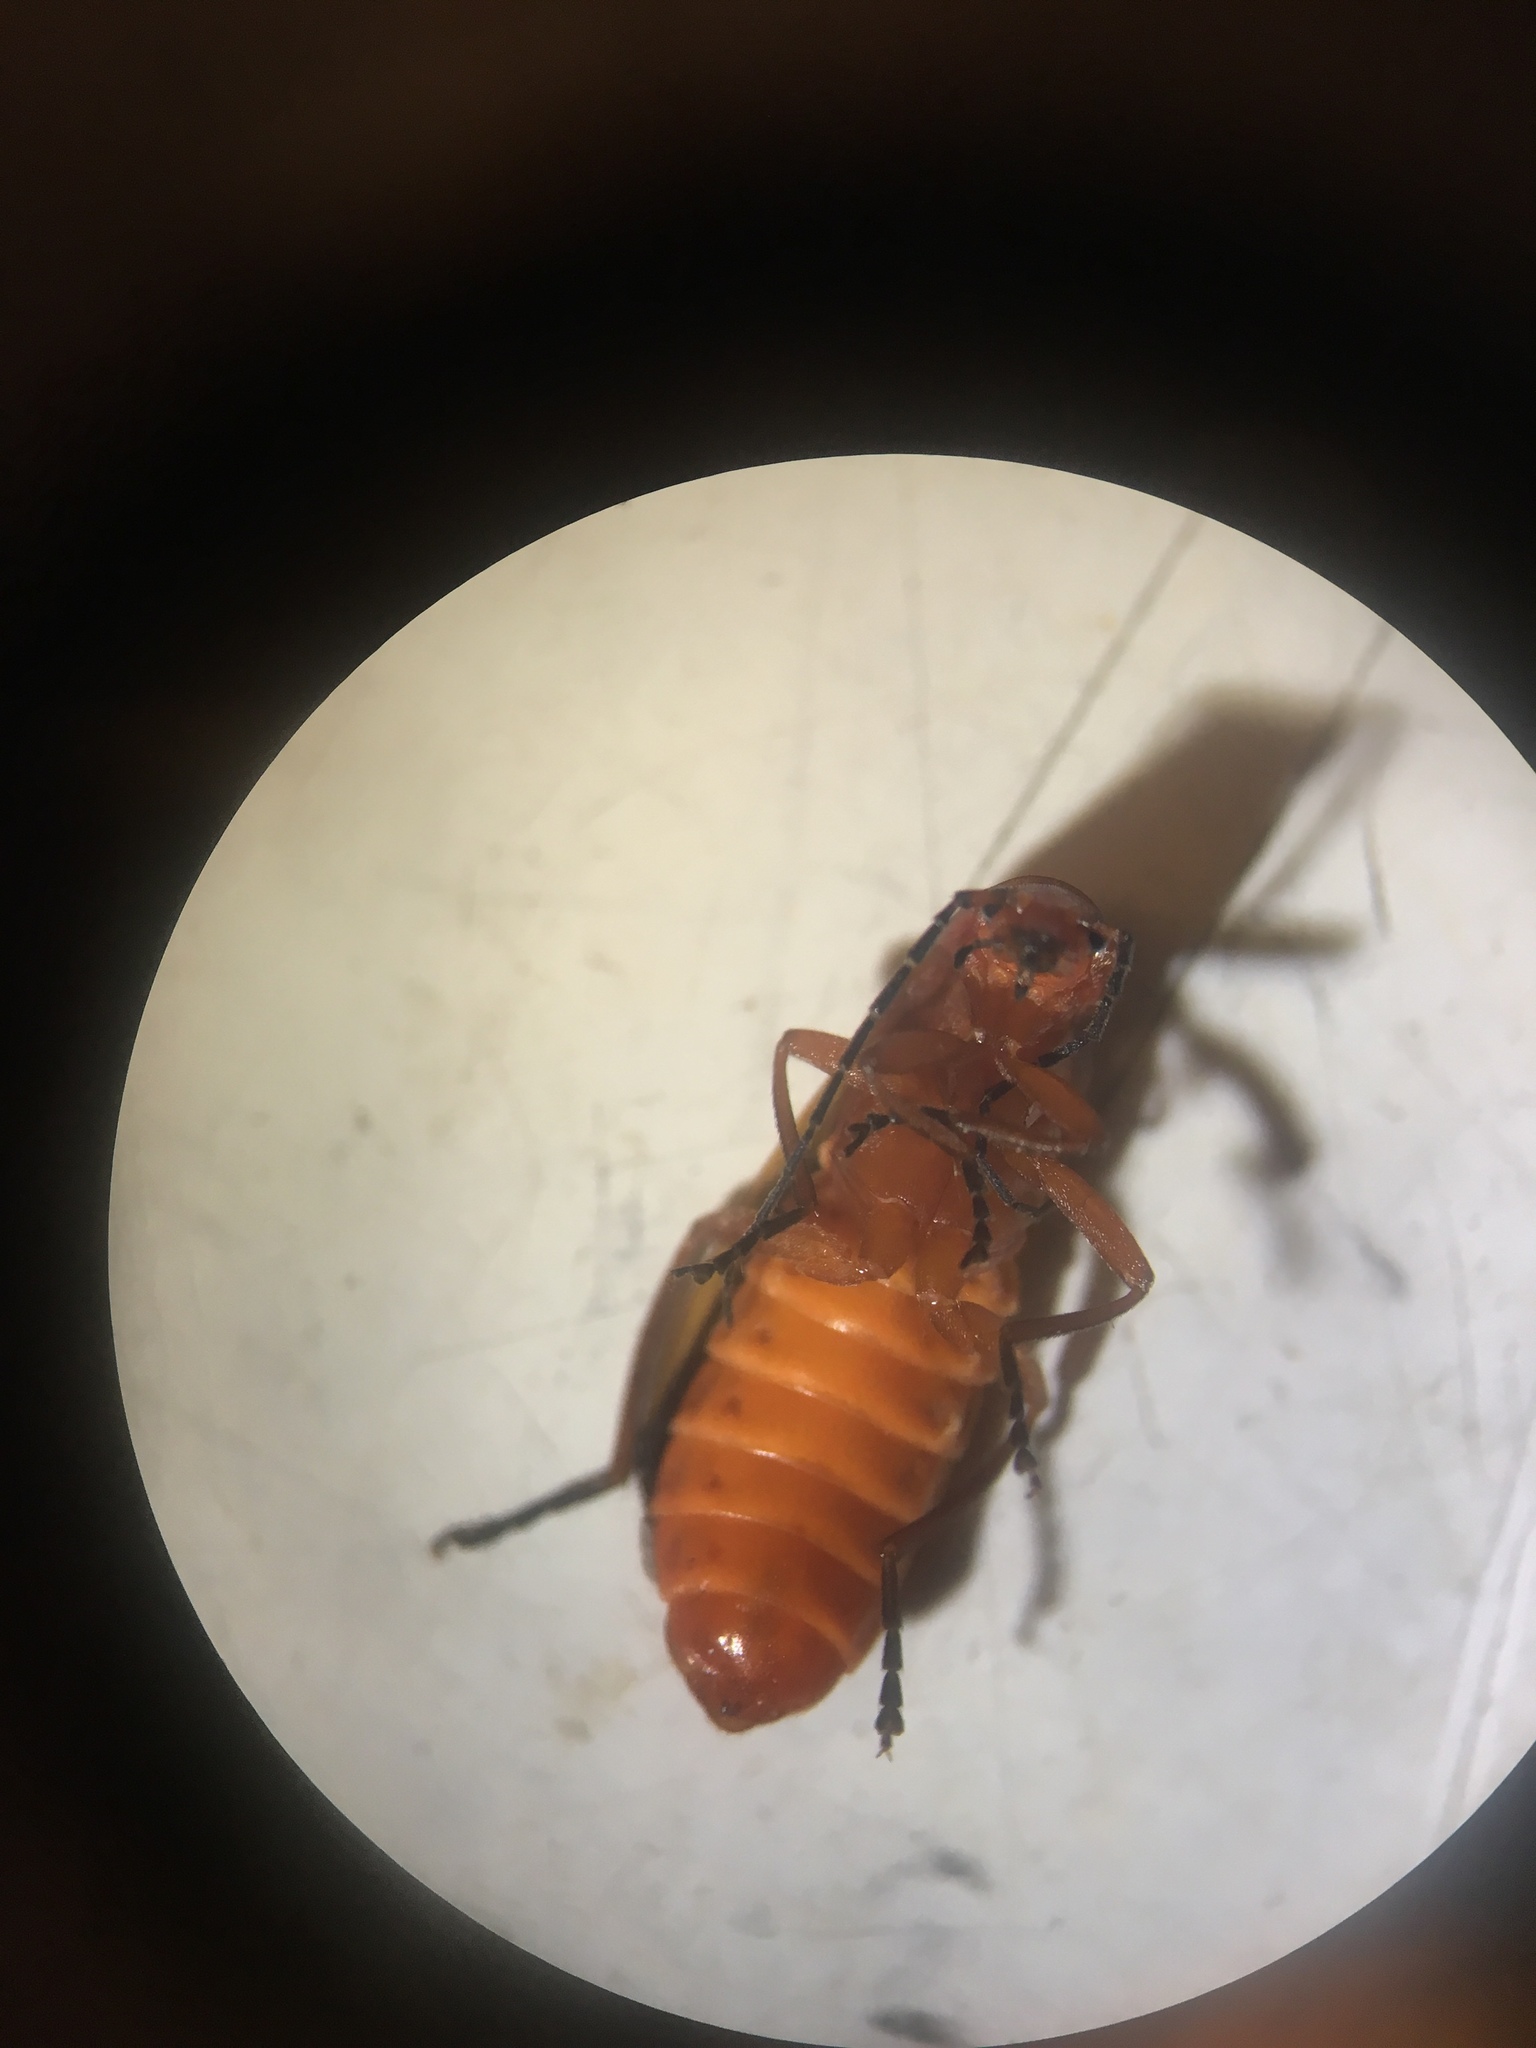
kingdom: Animalia
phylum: Arthropoda
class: Insecta
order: Coleoptera
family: Cantharidae
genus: Rhagonycha
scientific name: Rhagonycha fulva
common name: Common red soldier beetle
